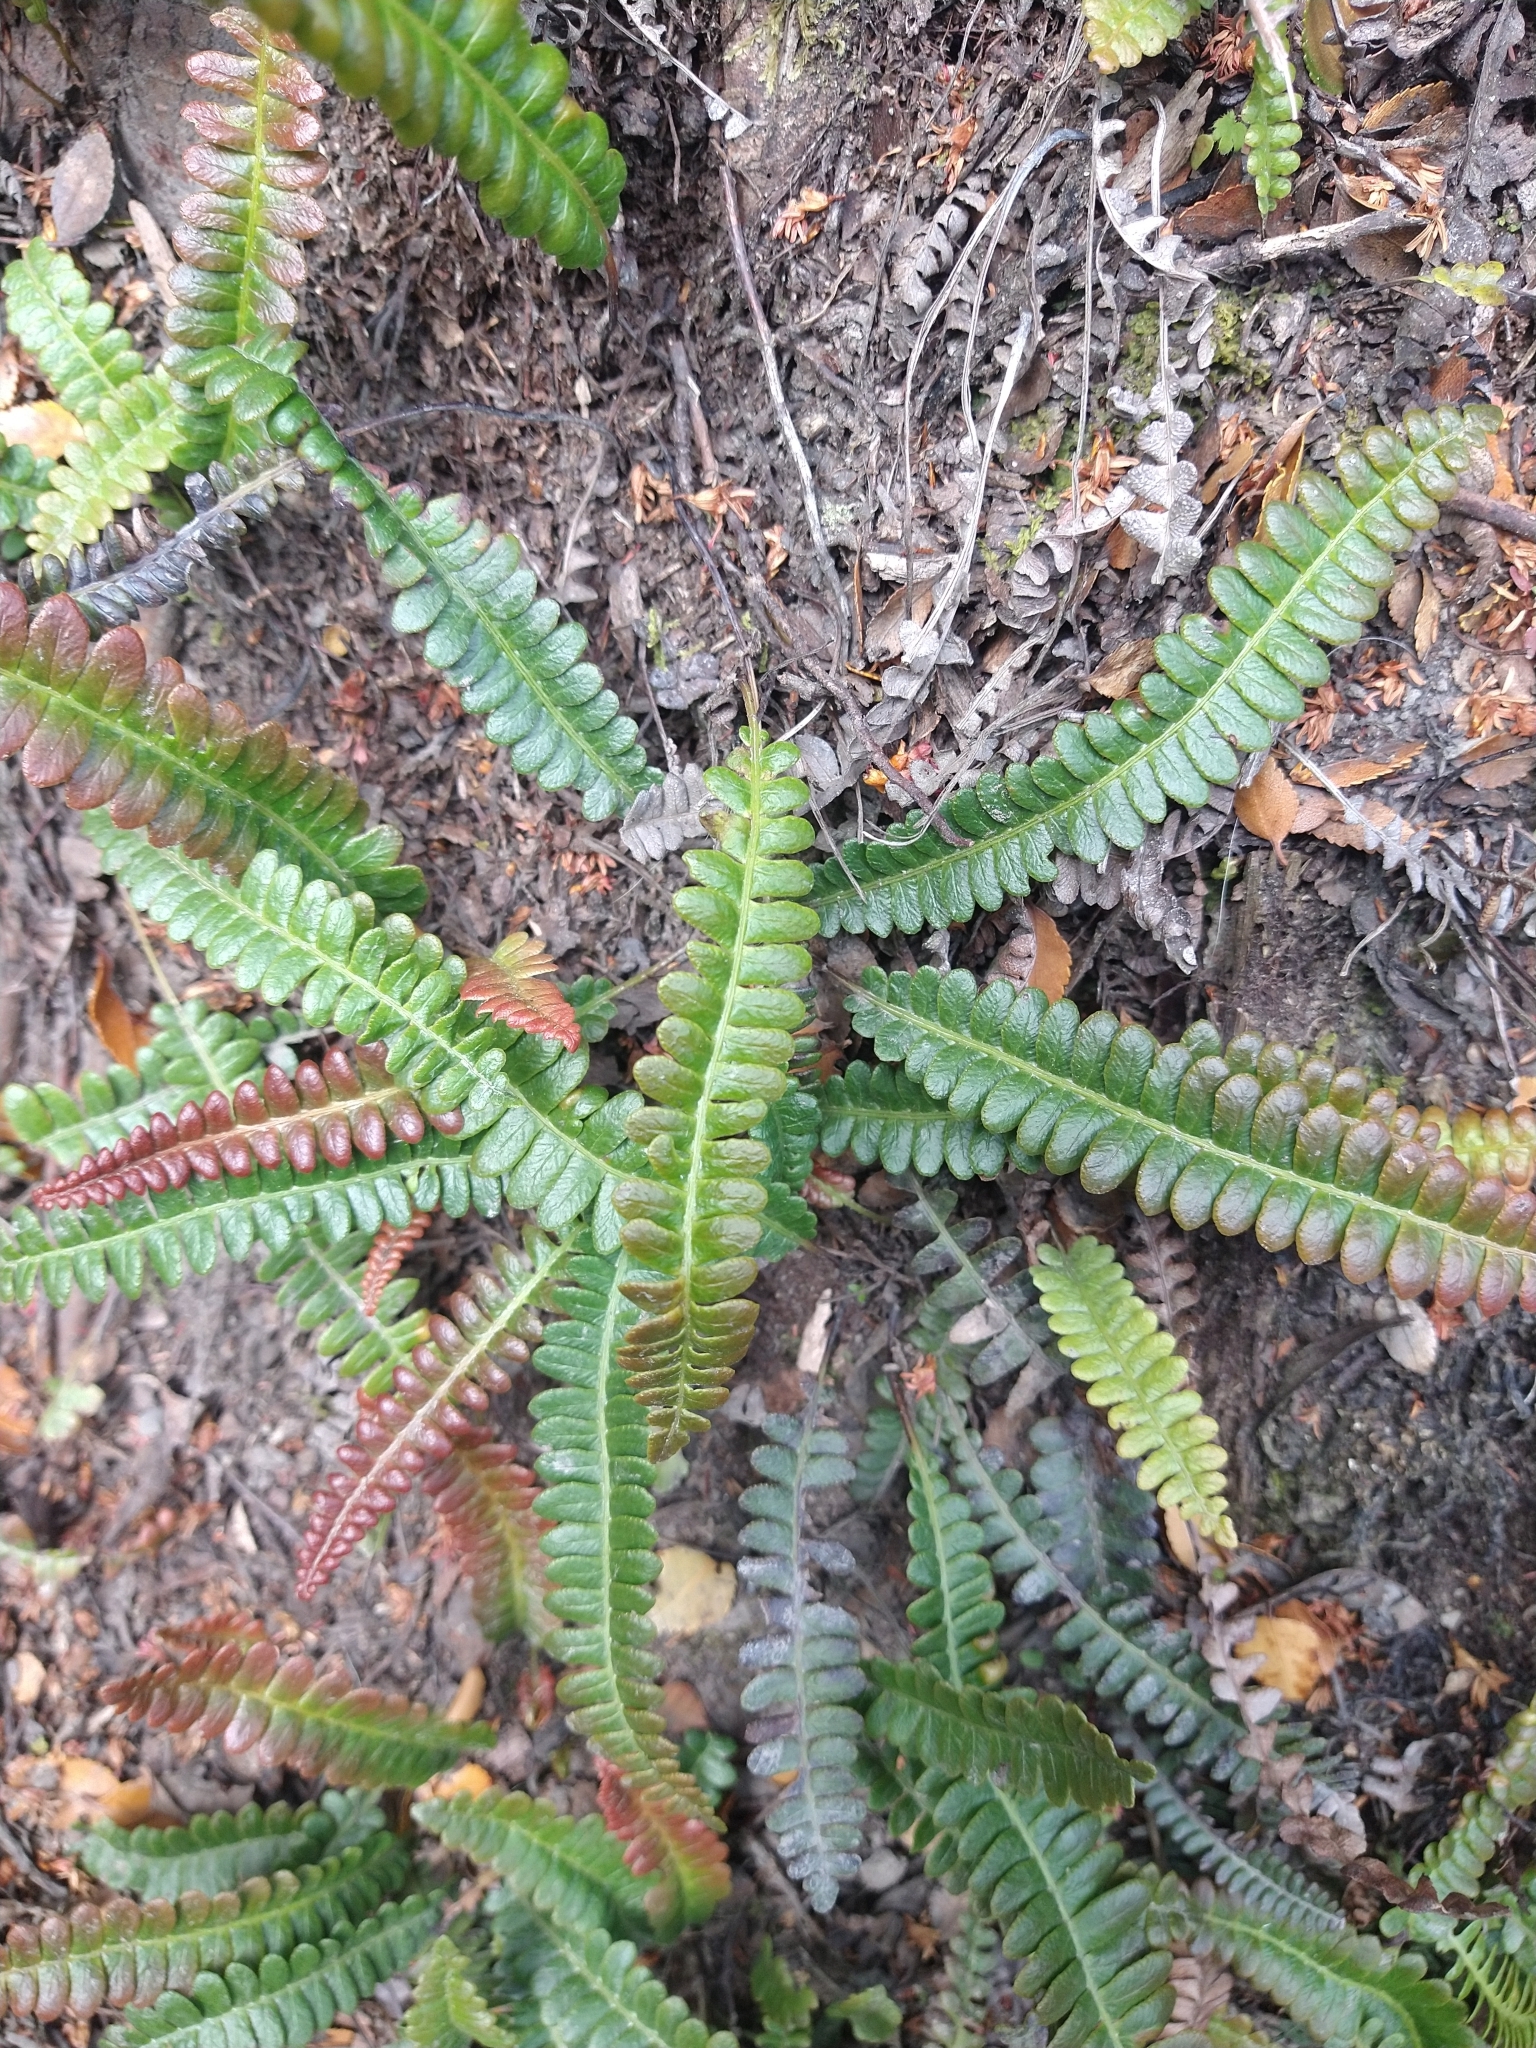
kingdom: Plantae
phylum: Tracheophyta
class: Polypodiopsida
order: Polypodiales
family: Blechnaceae
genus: Austroblechnum
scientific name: Austroblechnum penna-marina
